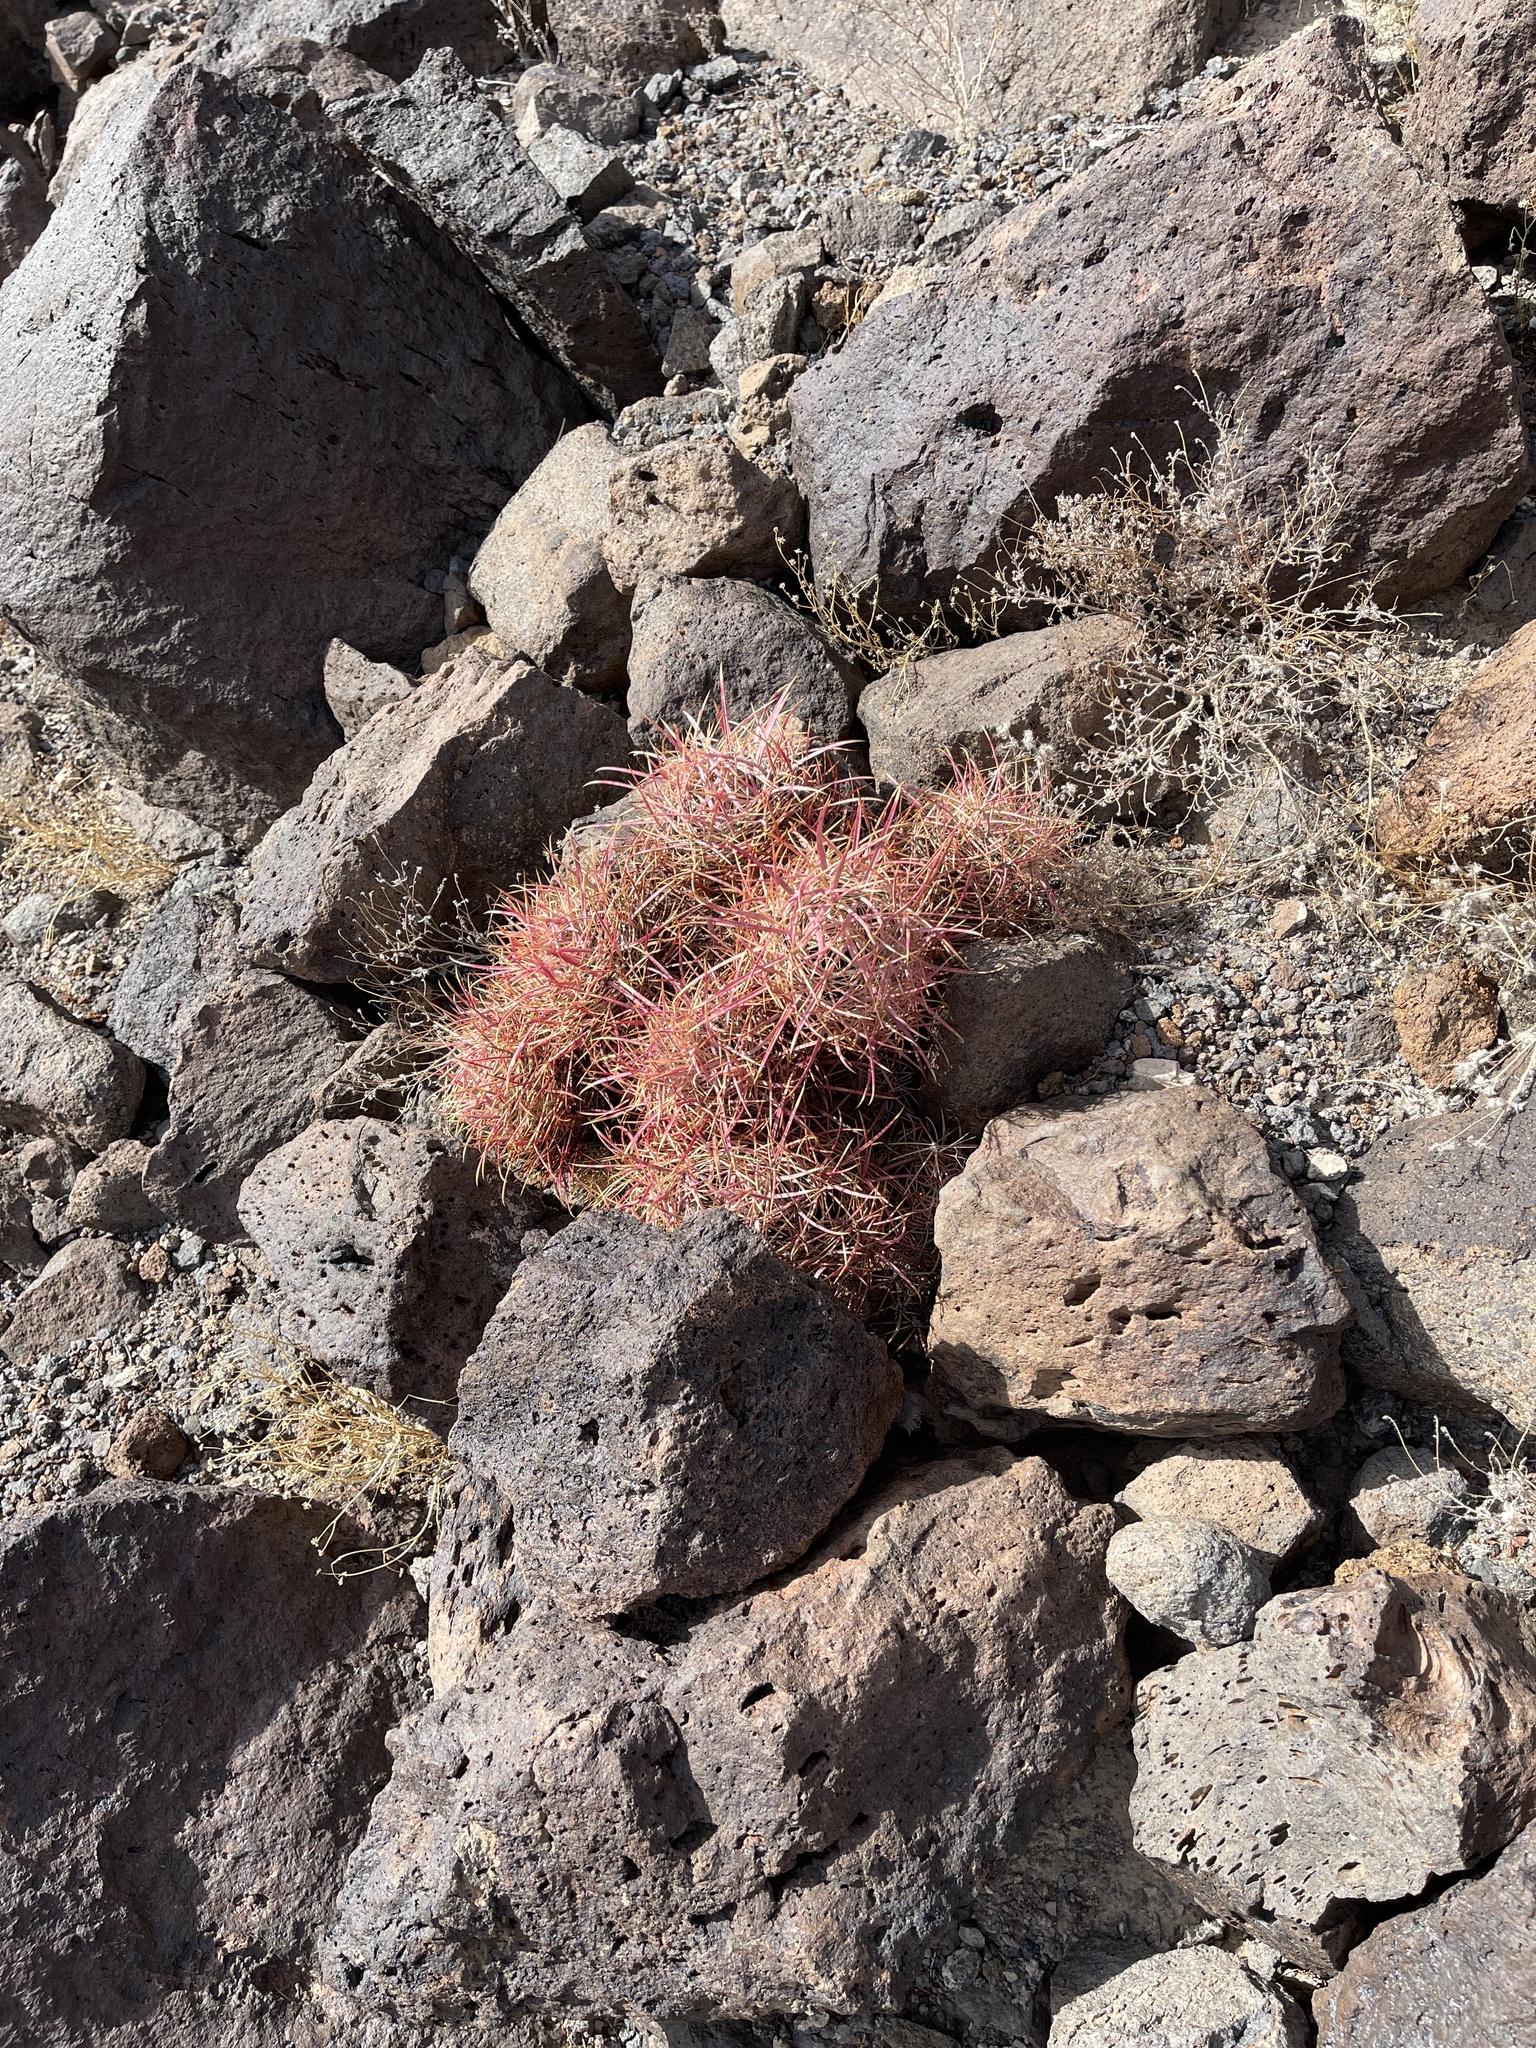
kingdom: Plantae
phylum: Tracheophyta
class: Magnoliopsida
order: Caryophyllales
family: Cactaceae
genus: Ferocactus
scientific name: Ferocactus cylindraceus
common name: California barrel cactus
